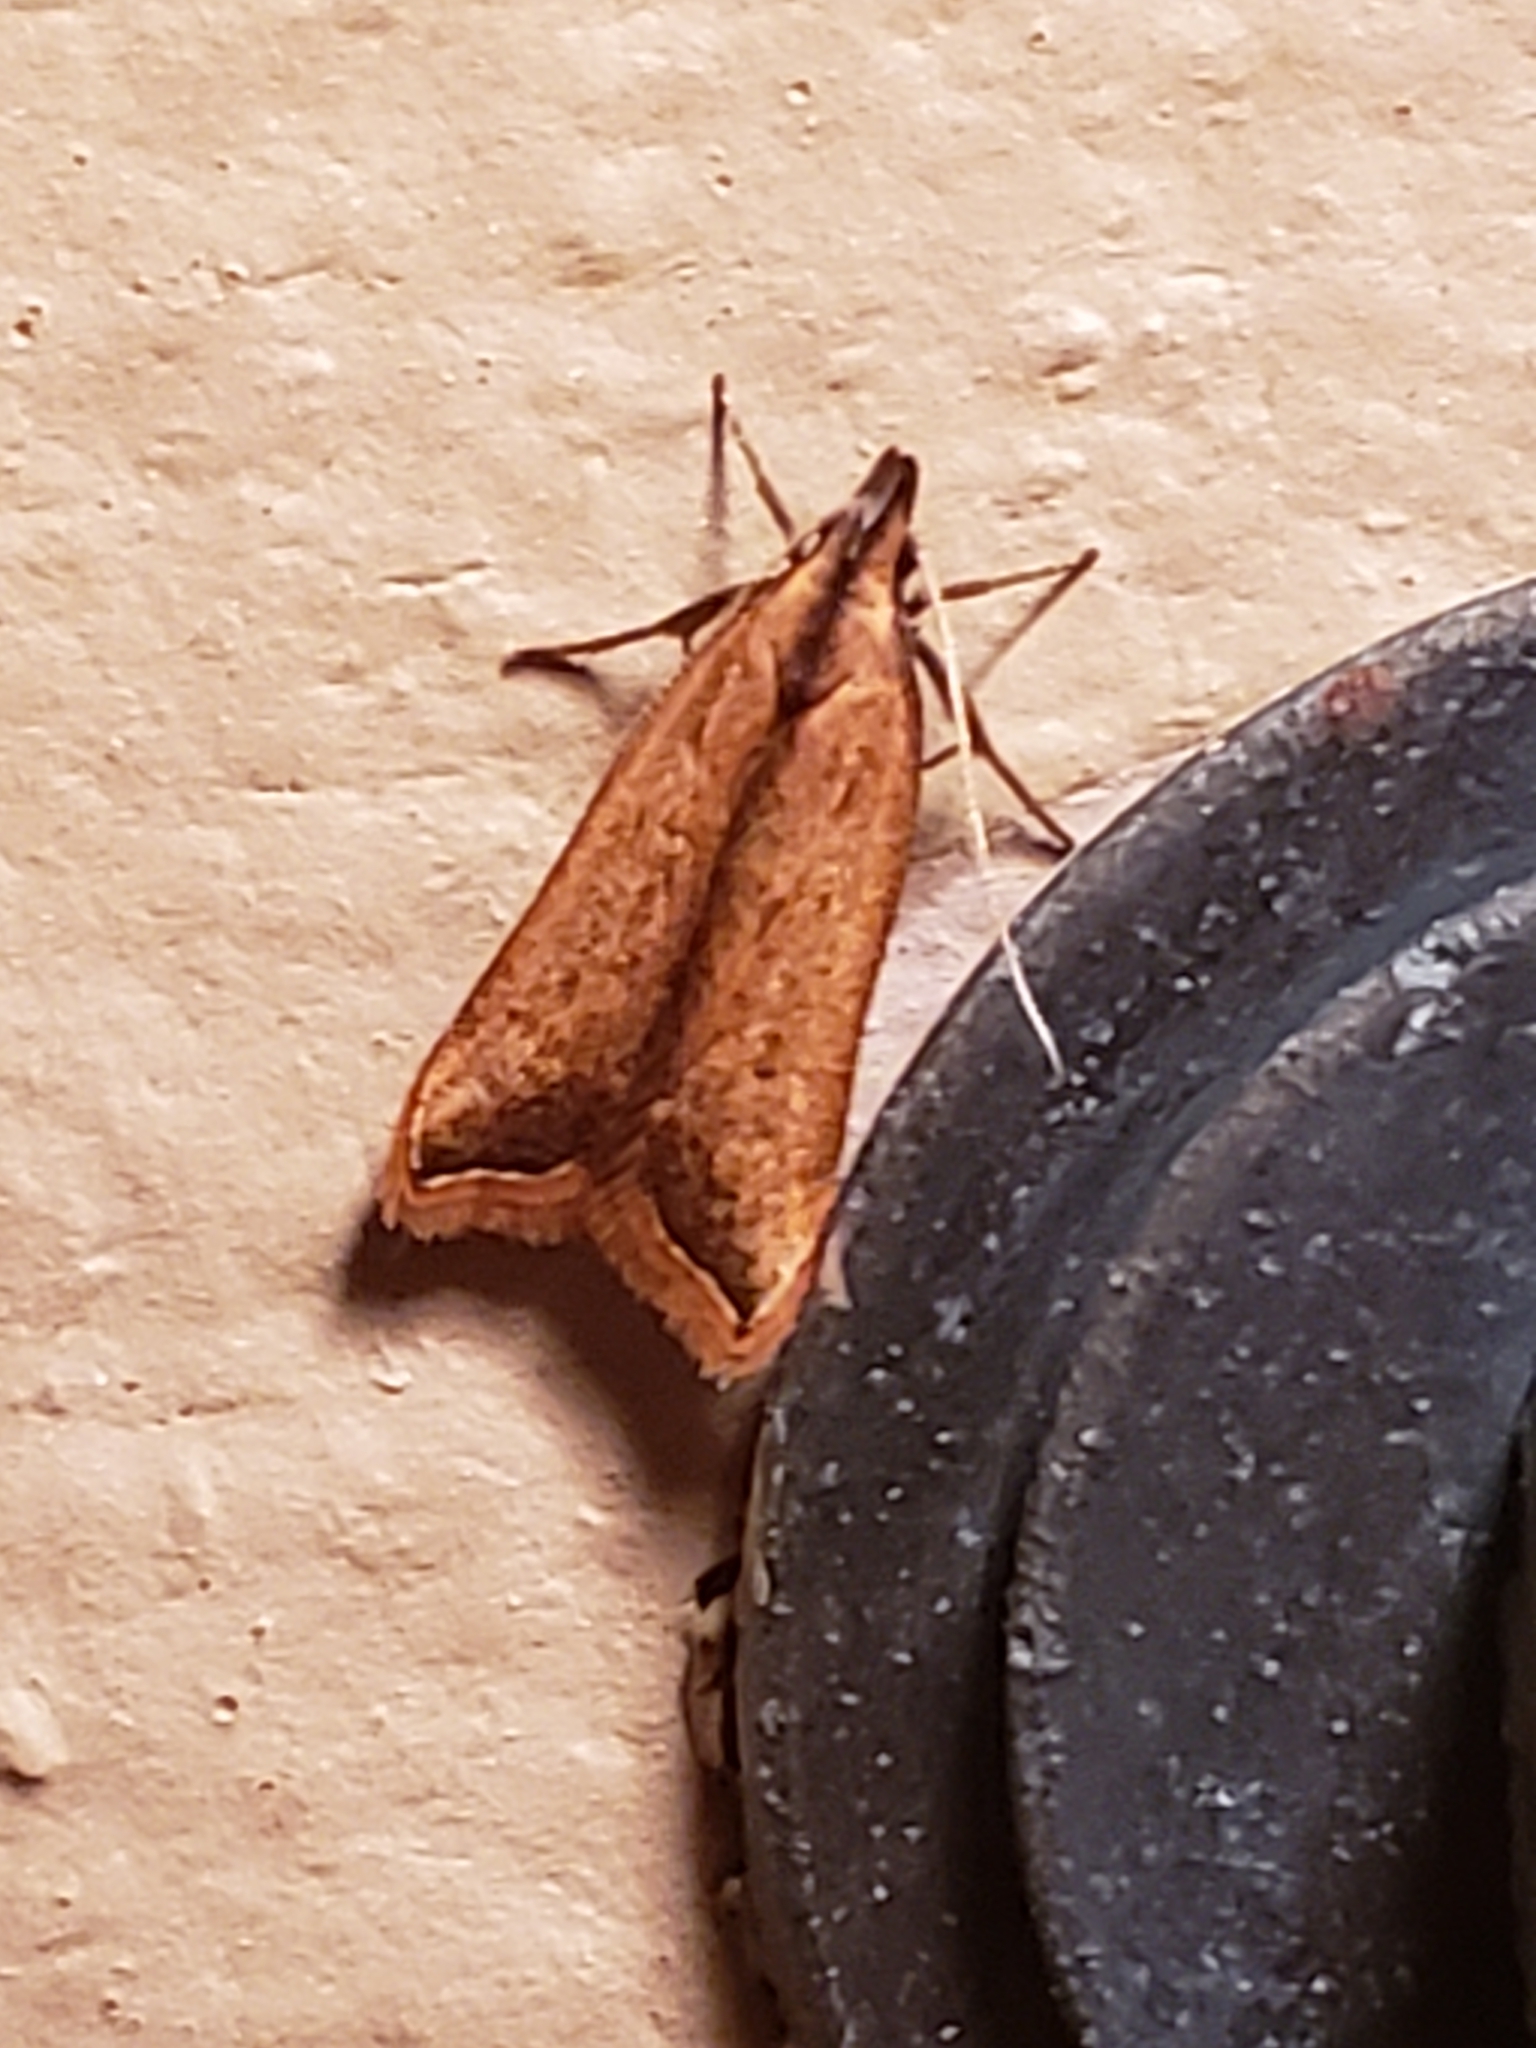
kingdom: Animalia
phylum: Arthropoda
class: Insecta
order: Lepidoptera
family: Gelechiidae
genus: Dichomeris
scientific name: Dichomeris heriguronis
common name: Black-edged dichomeris moth
